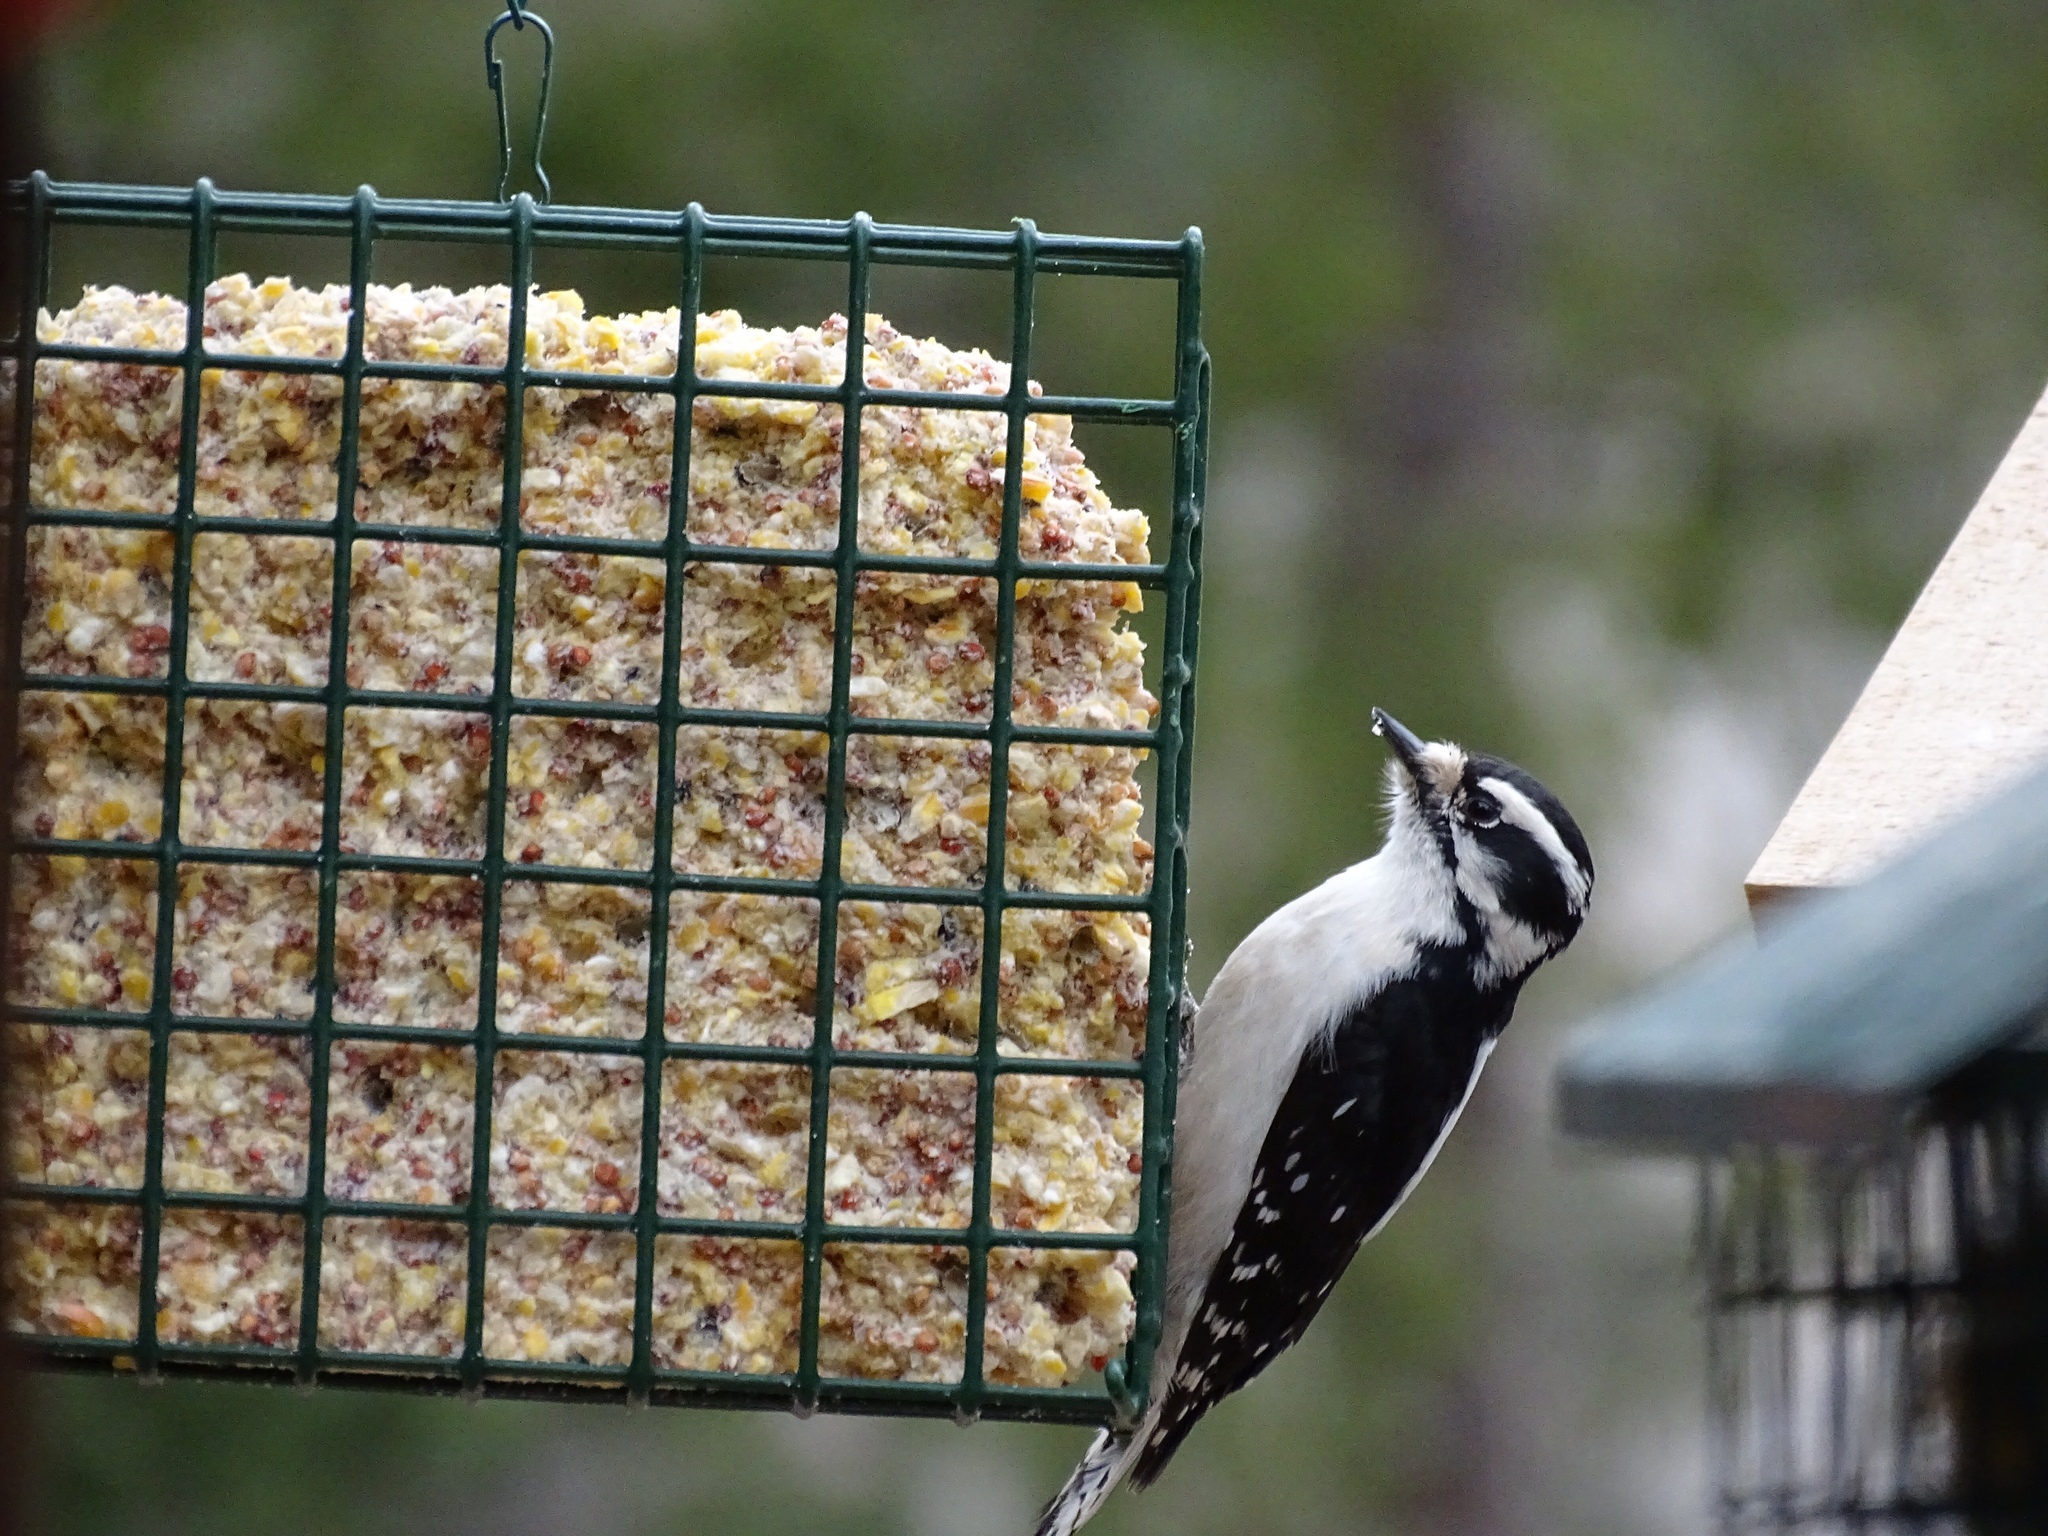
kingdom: Animalia
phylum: Chordata
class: Aves
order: Piciformes
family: Picidae
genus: Dryobates
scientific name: Dryobates pubescens
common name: Downy woodpecker
